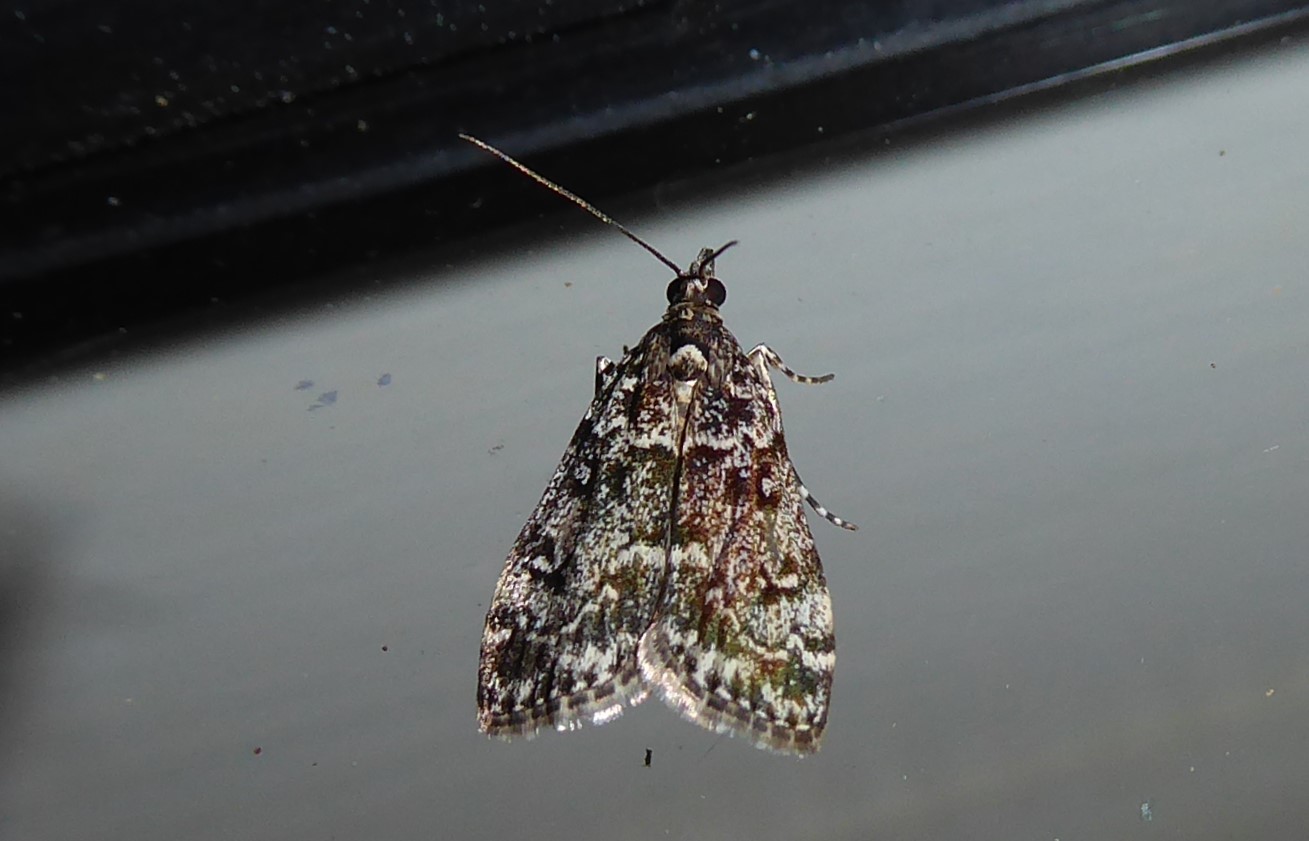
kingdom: Animalia
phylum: Arthropoda
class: Insecta
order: Lepidoptera
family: Crambidae
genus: Eudonia
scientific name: Eudonia philerga
